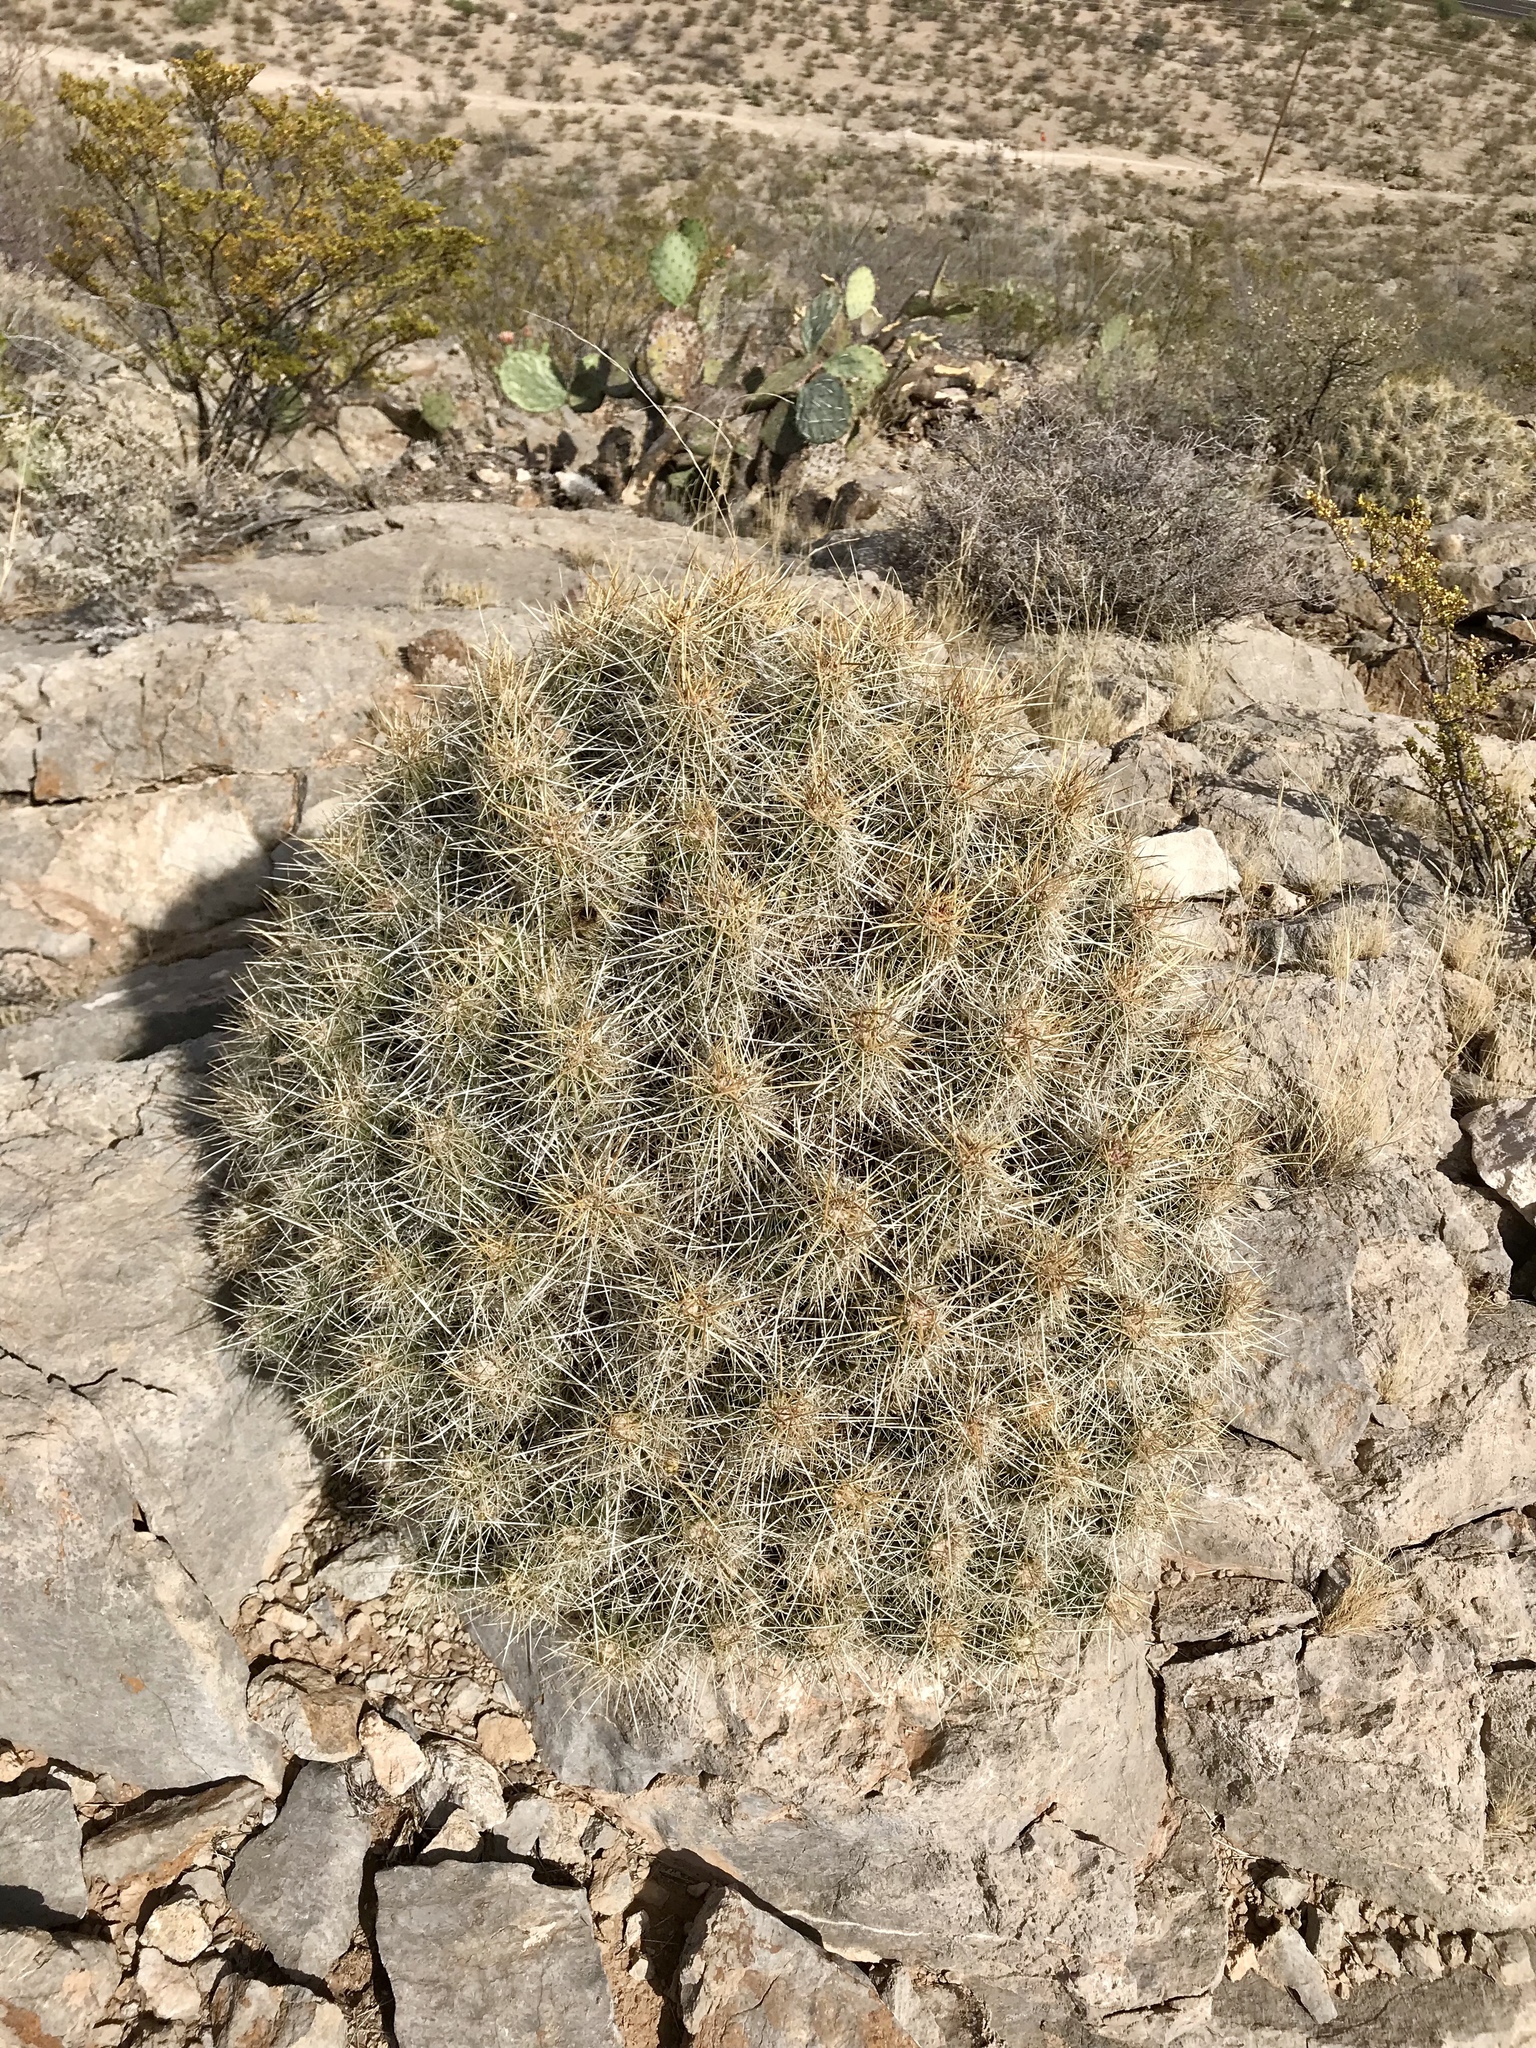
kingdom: Plantae
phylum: Tracheophyta
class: Magnoliopsida
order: Caryophyllales
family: Cactaceae
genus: Echinocereus
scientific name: Echinocereus stramineus
